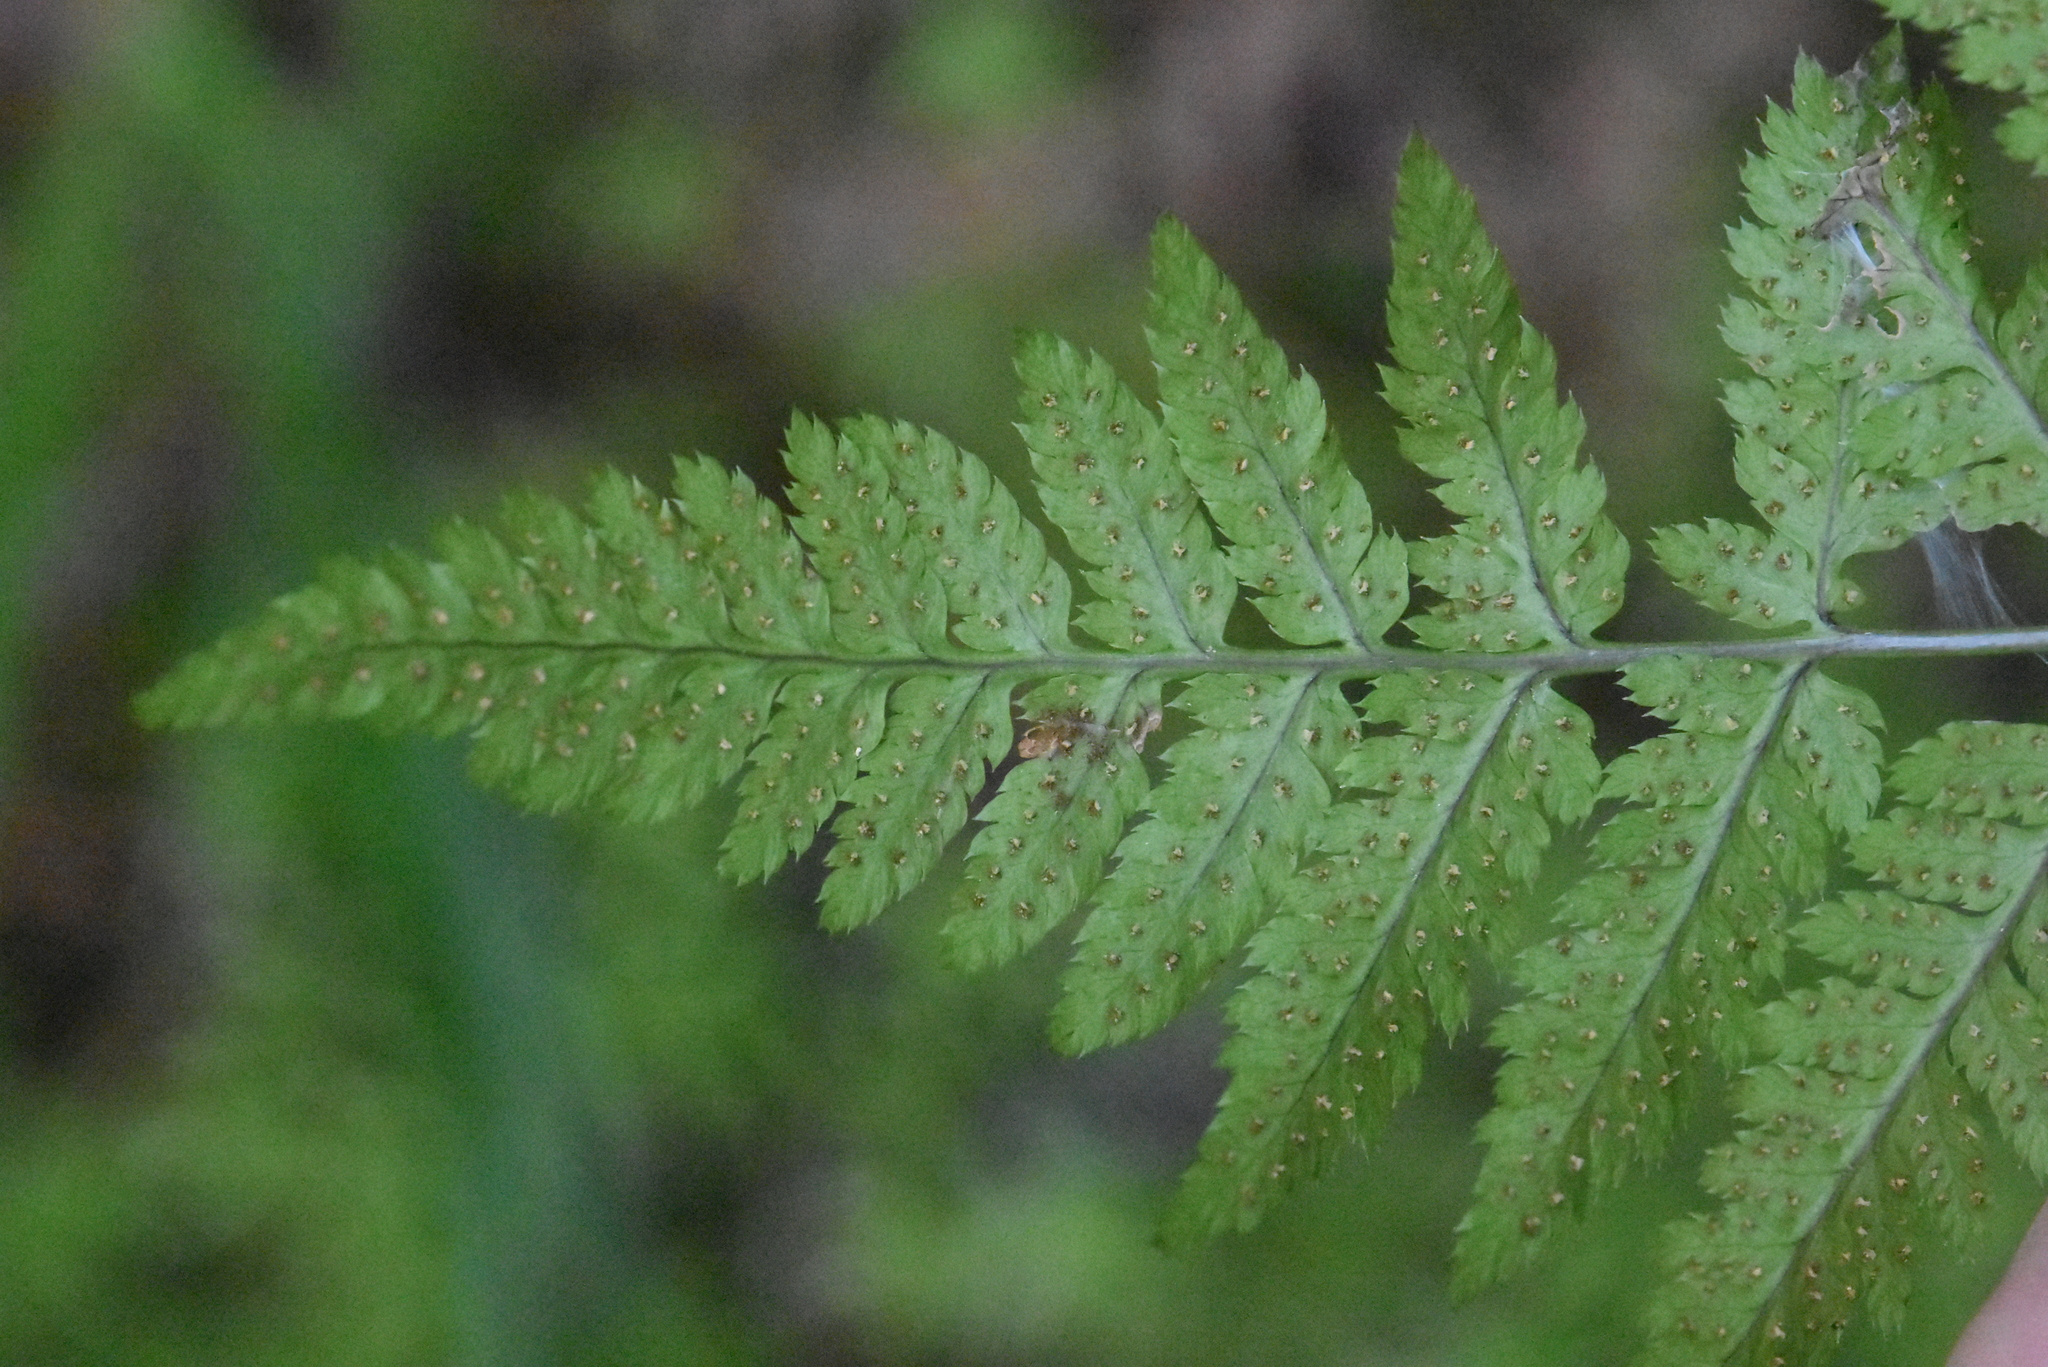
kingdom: Plantae
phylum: Tracheophyta
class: Polypodiopsida
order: Polypodiales
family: Dryopteridaceae
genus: Dryopteris
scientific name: Dryopteris carthusiana
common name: Narrow buckler-fern
